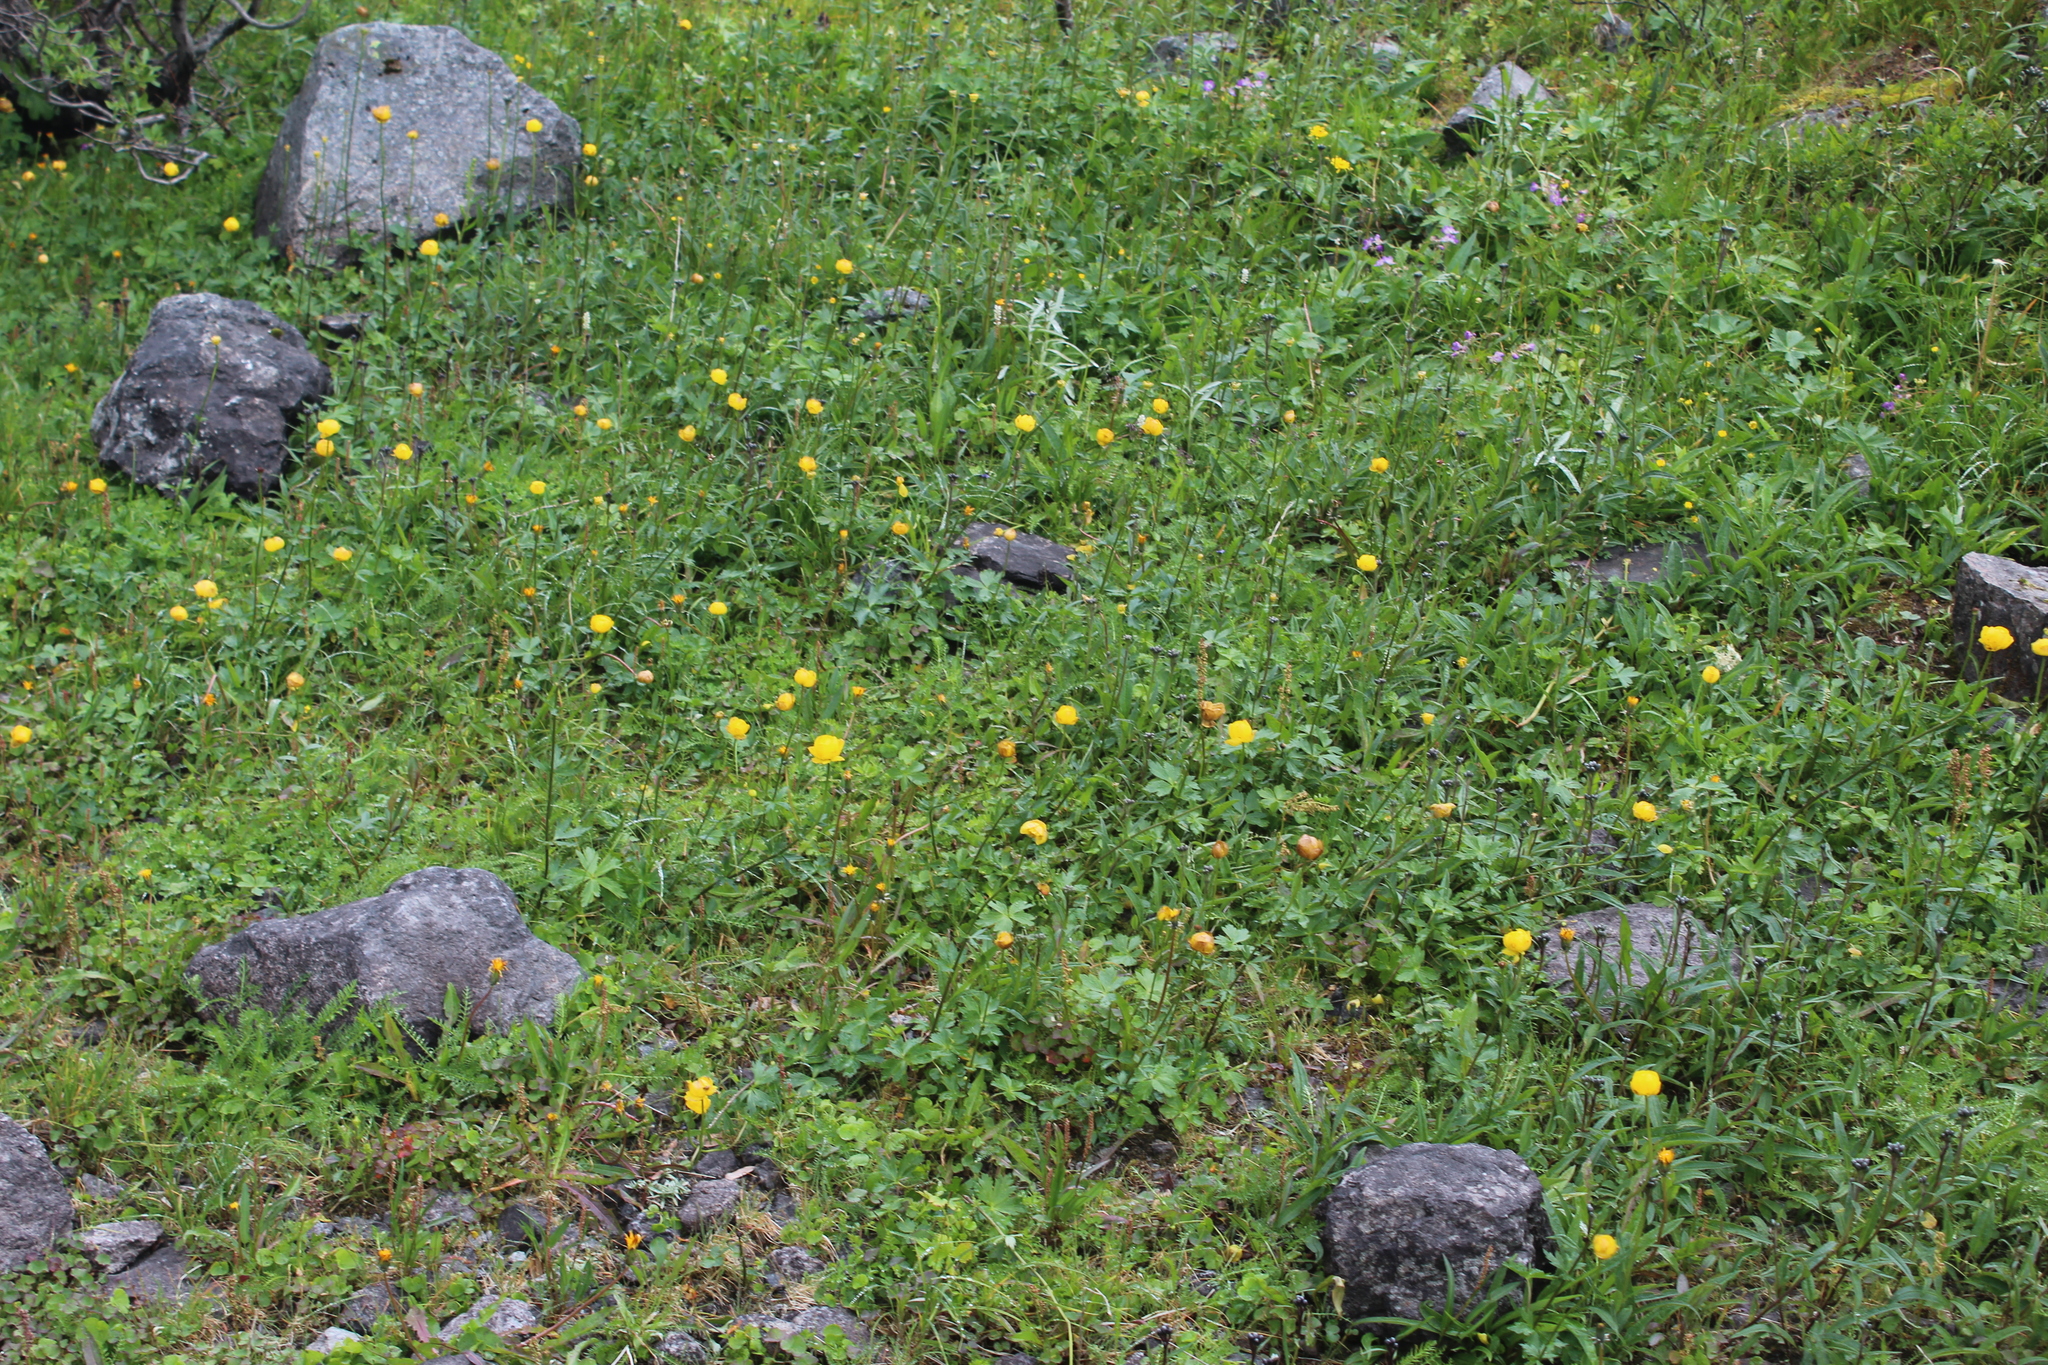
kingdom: Plantae
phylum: Tracheophyta
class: Magnoliopsida
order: Ranunculales
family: Ranunculaceae
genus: Trollius
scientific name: Trollius europaeus
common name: European globeflower
